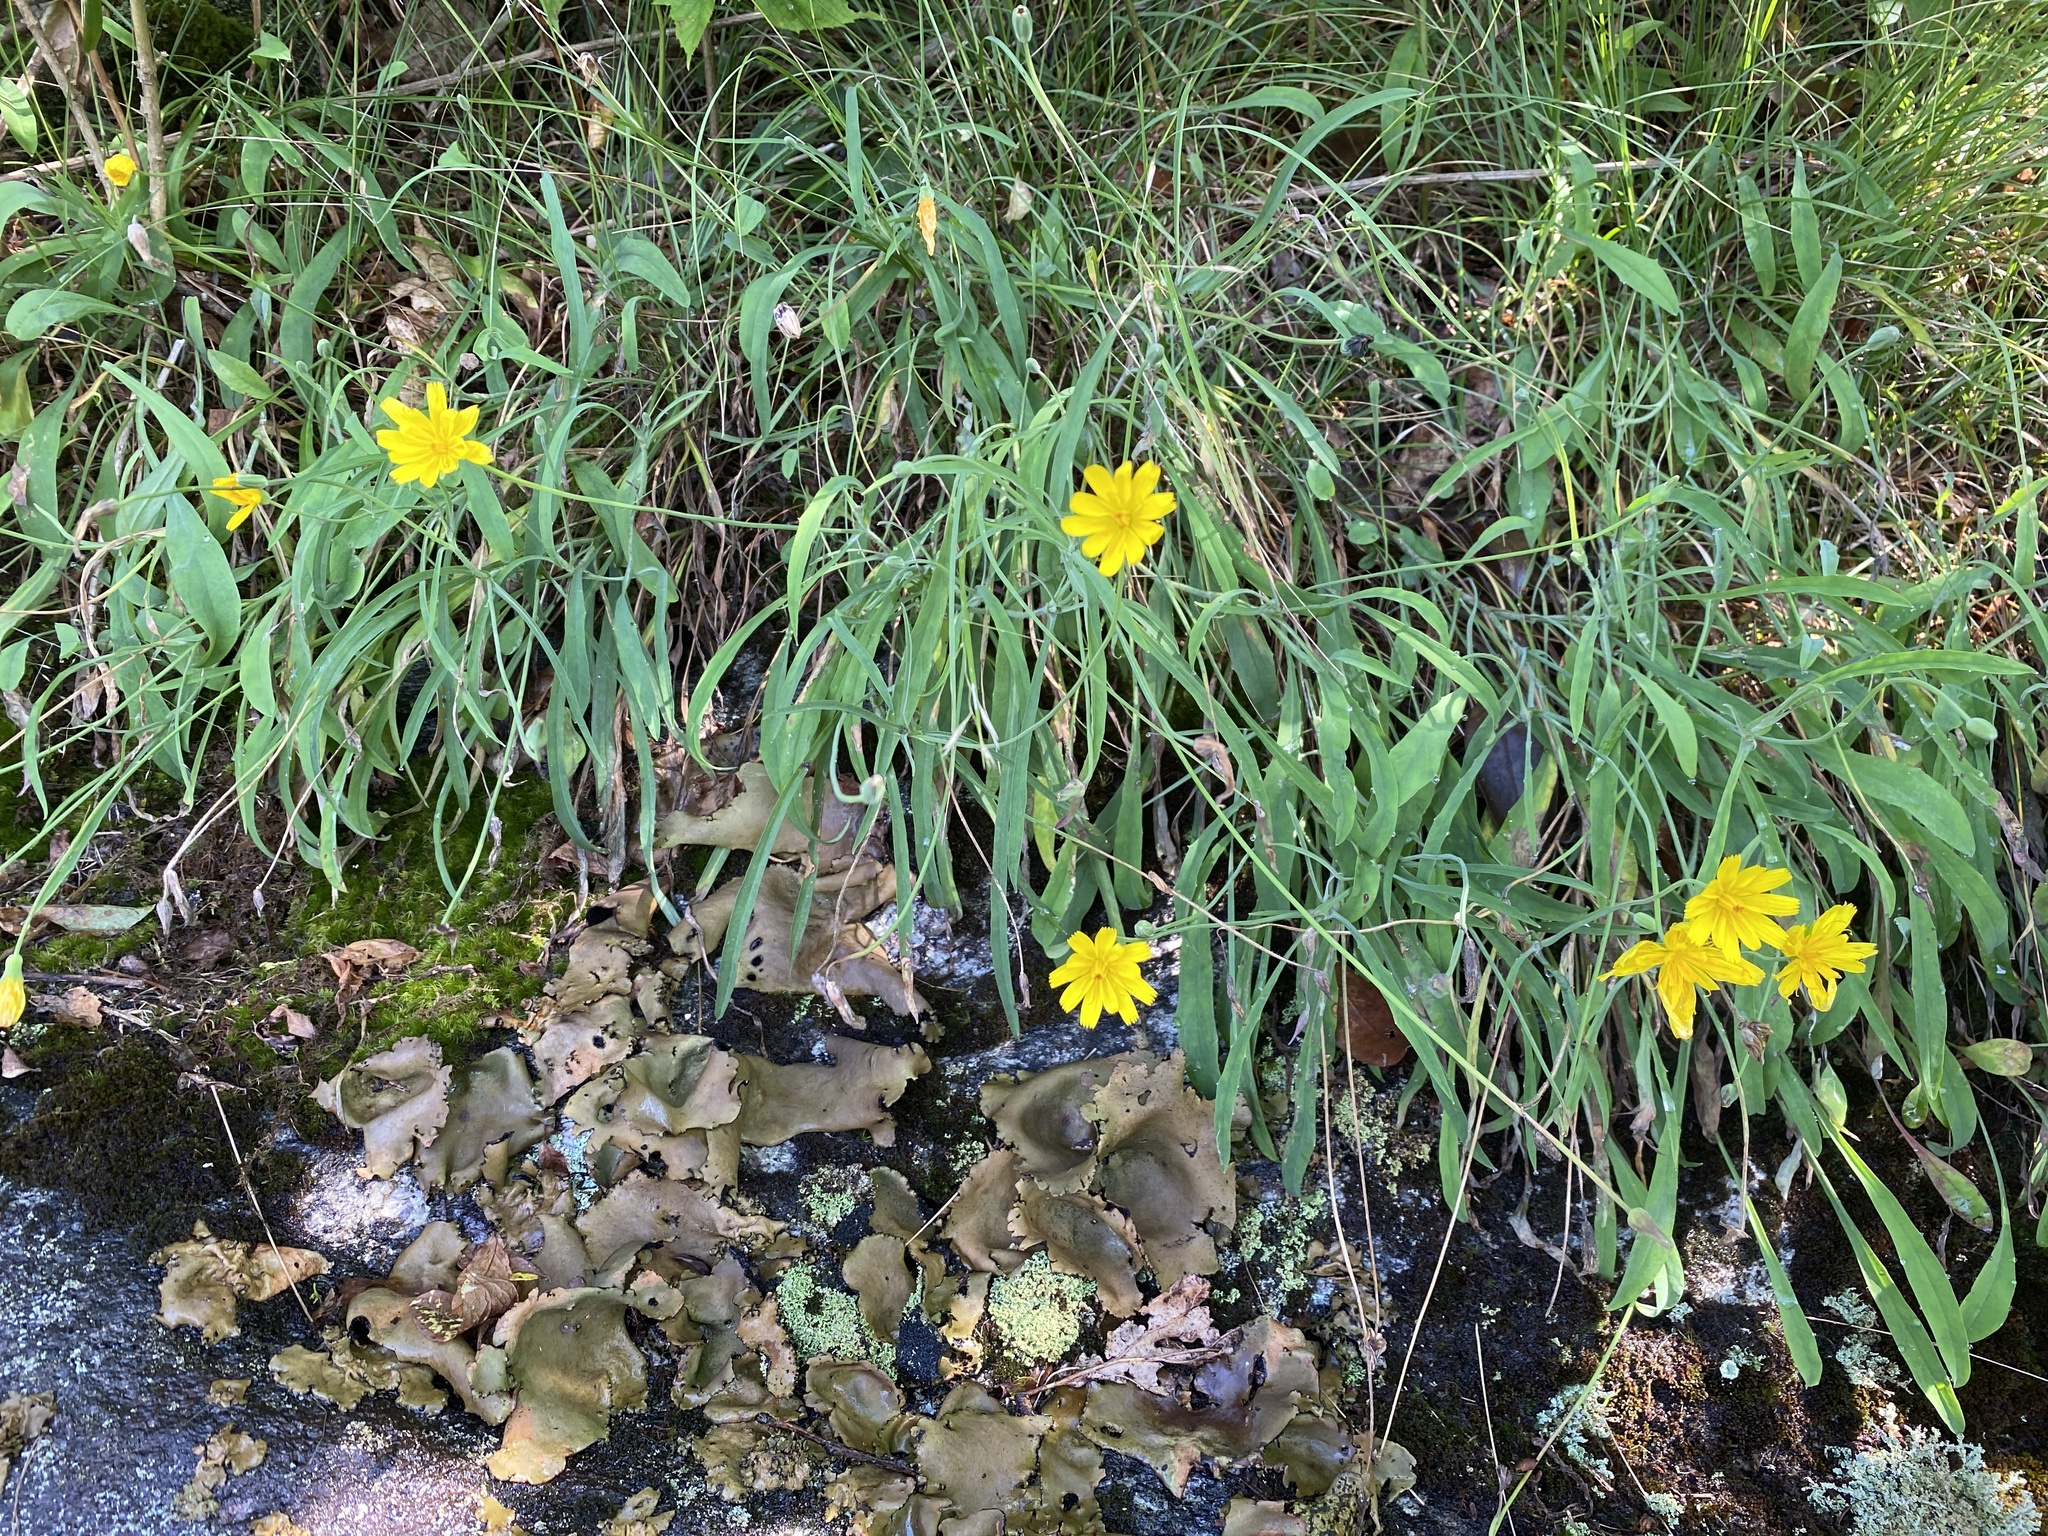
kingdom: Plantae
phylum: Tracheophyta
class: Magnoliopsida
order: Asterales
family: Asteraceae
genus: Krigia
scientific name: Krigia montana
